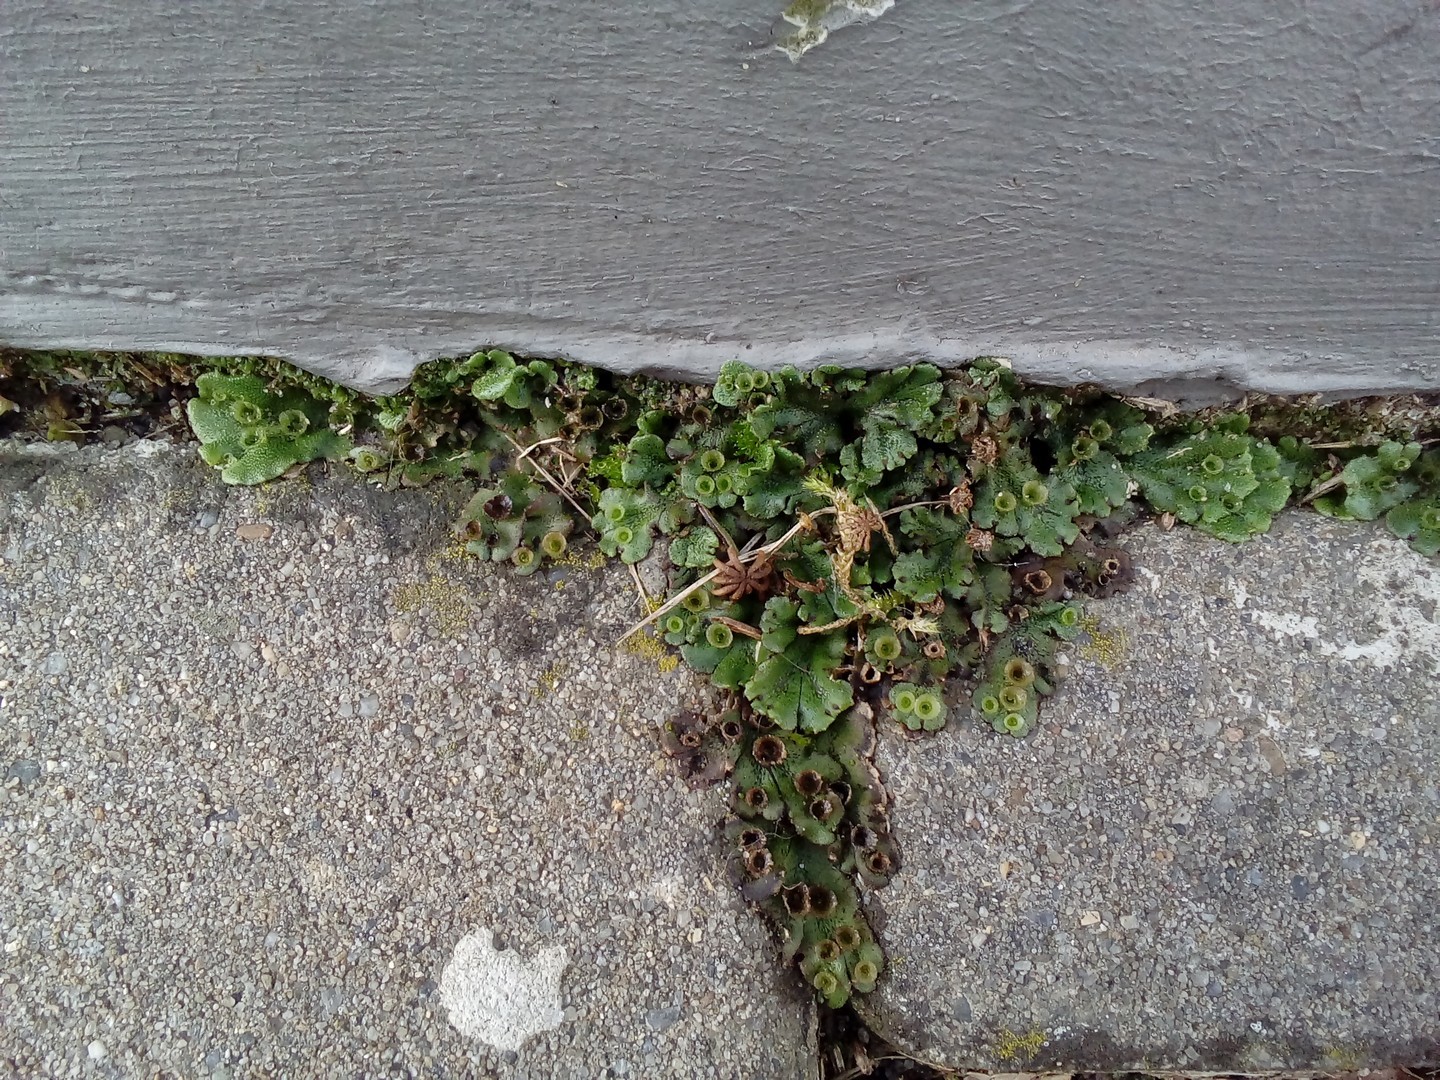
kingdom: Plantae
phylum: Marchantiophyta
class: Marchantiopsida
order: Marchantiales
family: Marchantiaceae
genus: Marchantia
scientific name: Marchantia polymorpha
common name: Common liverwort
